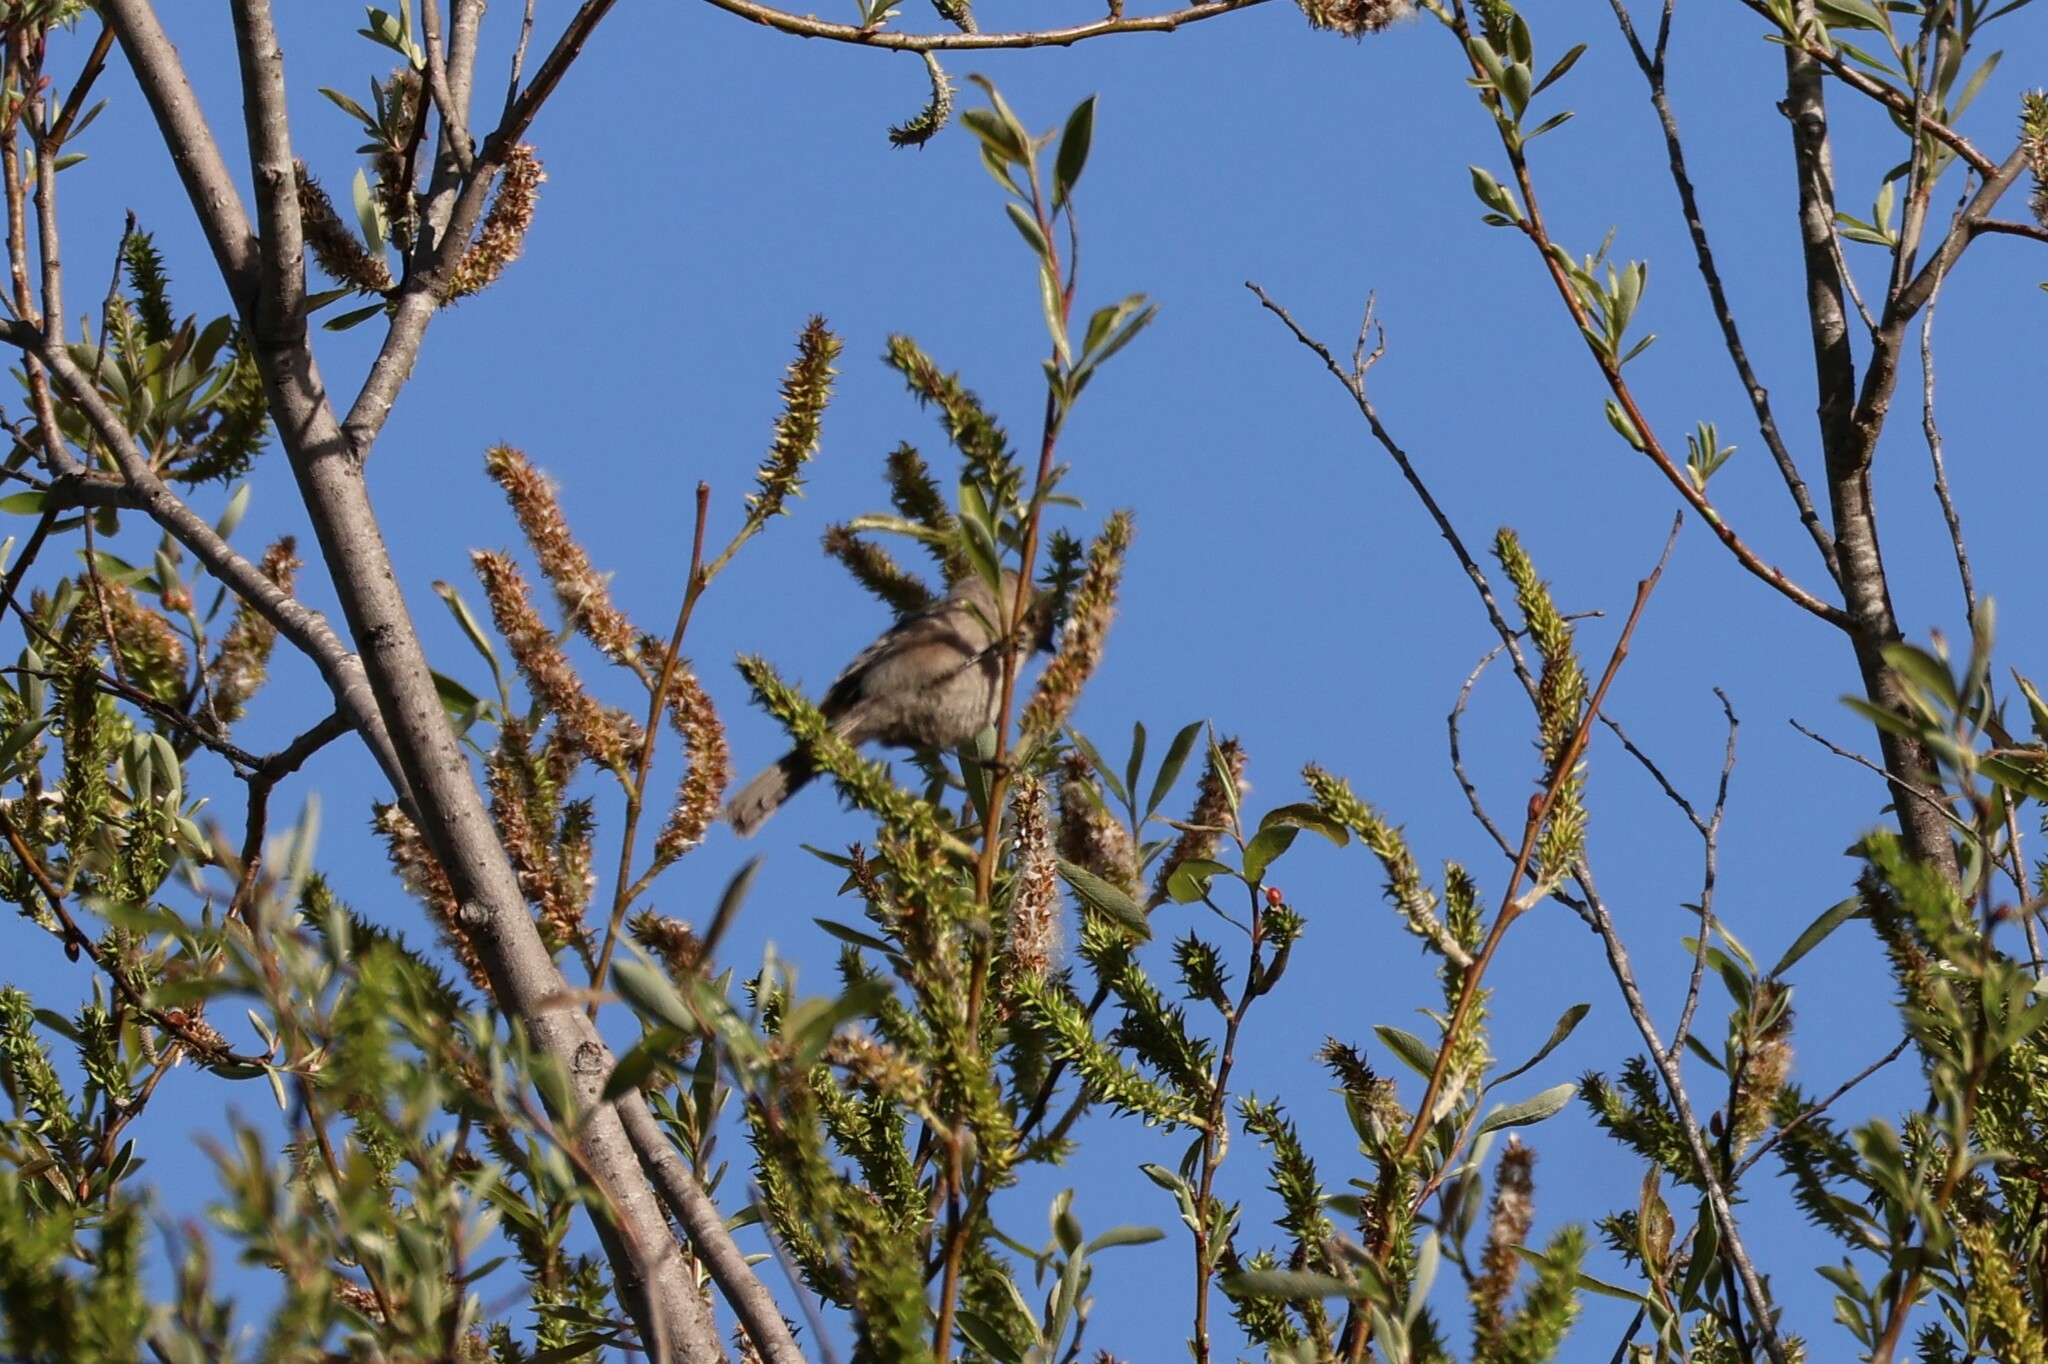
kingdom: Animalia
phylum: Chordata
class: Aves
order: Passeriformes
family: Aegithalidae
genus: Psaltriparus
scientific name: Psaltriparus minimus
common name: American bushtit
